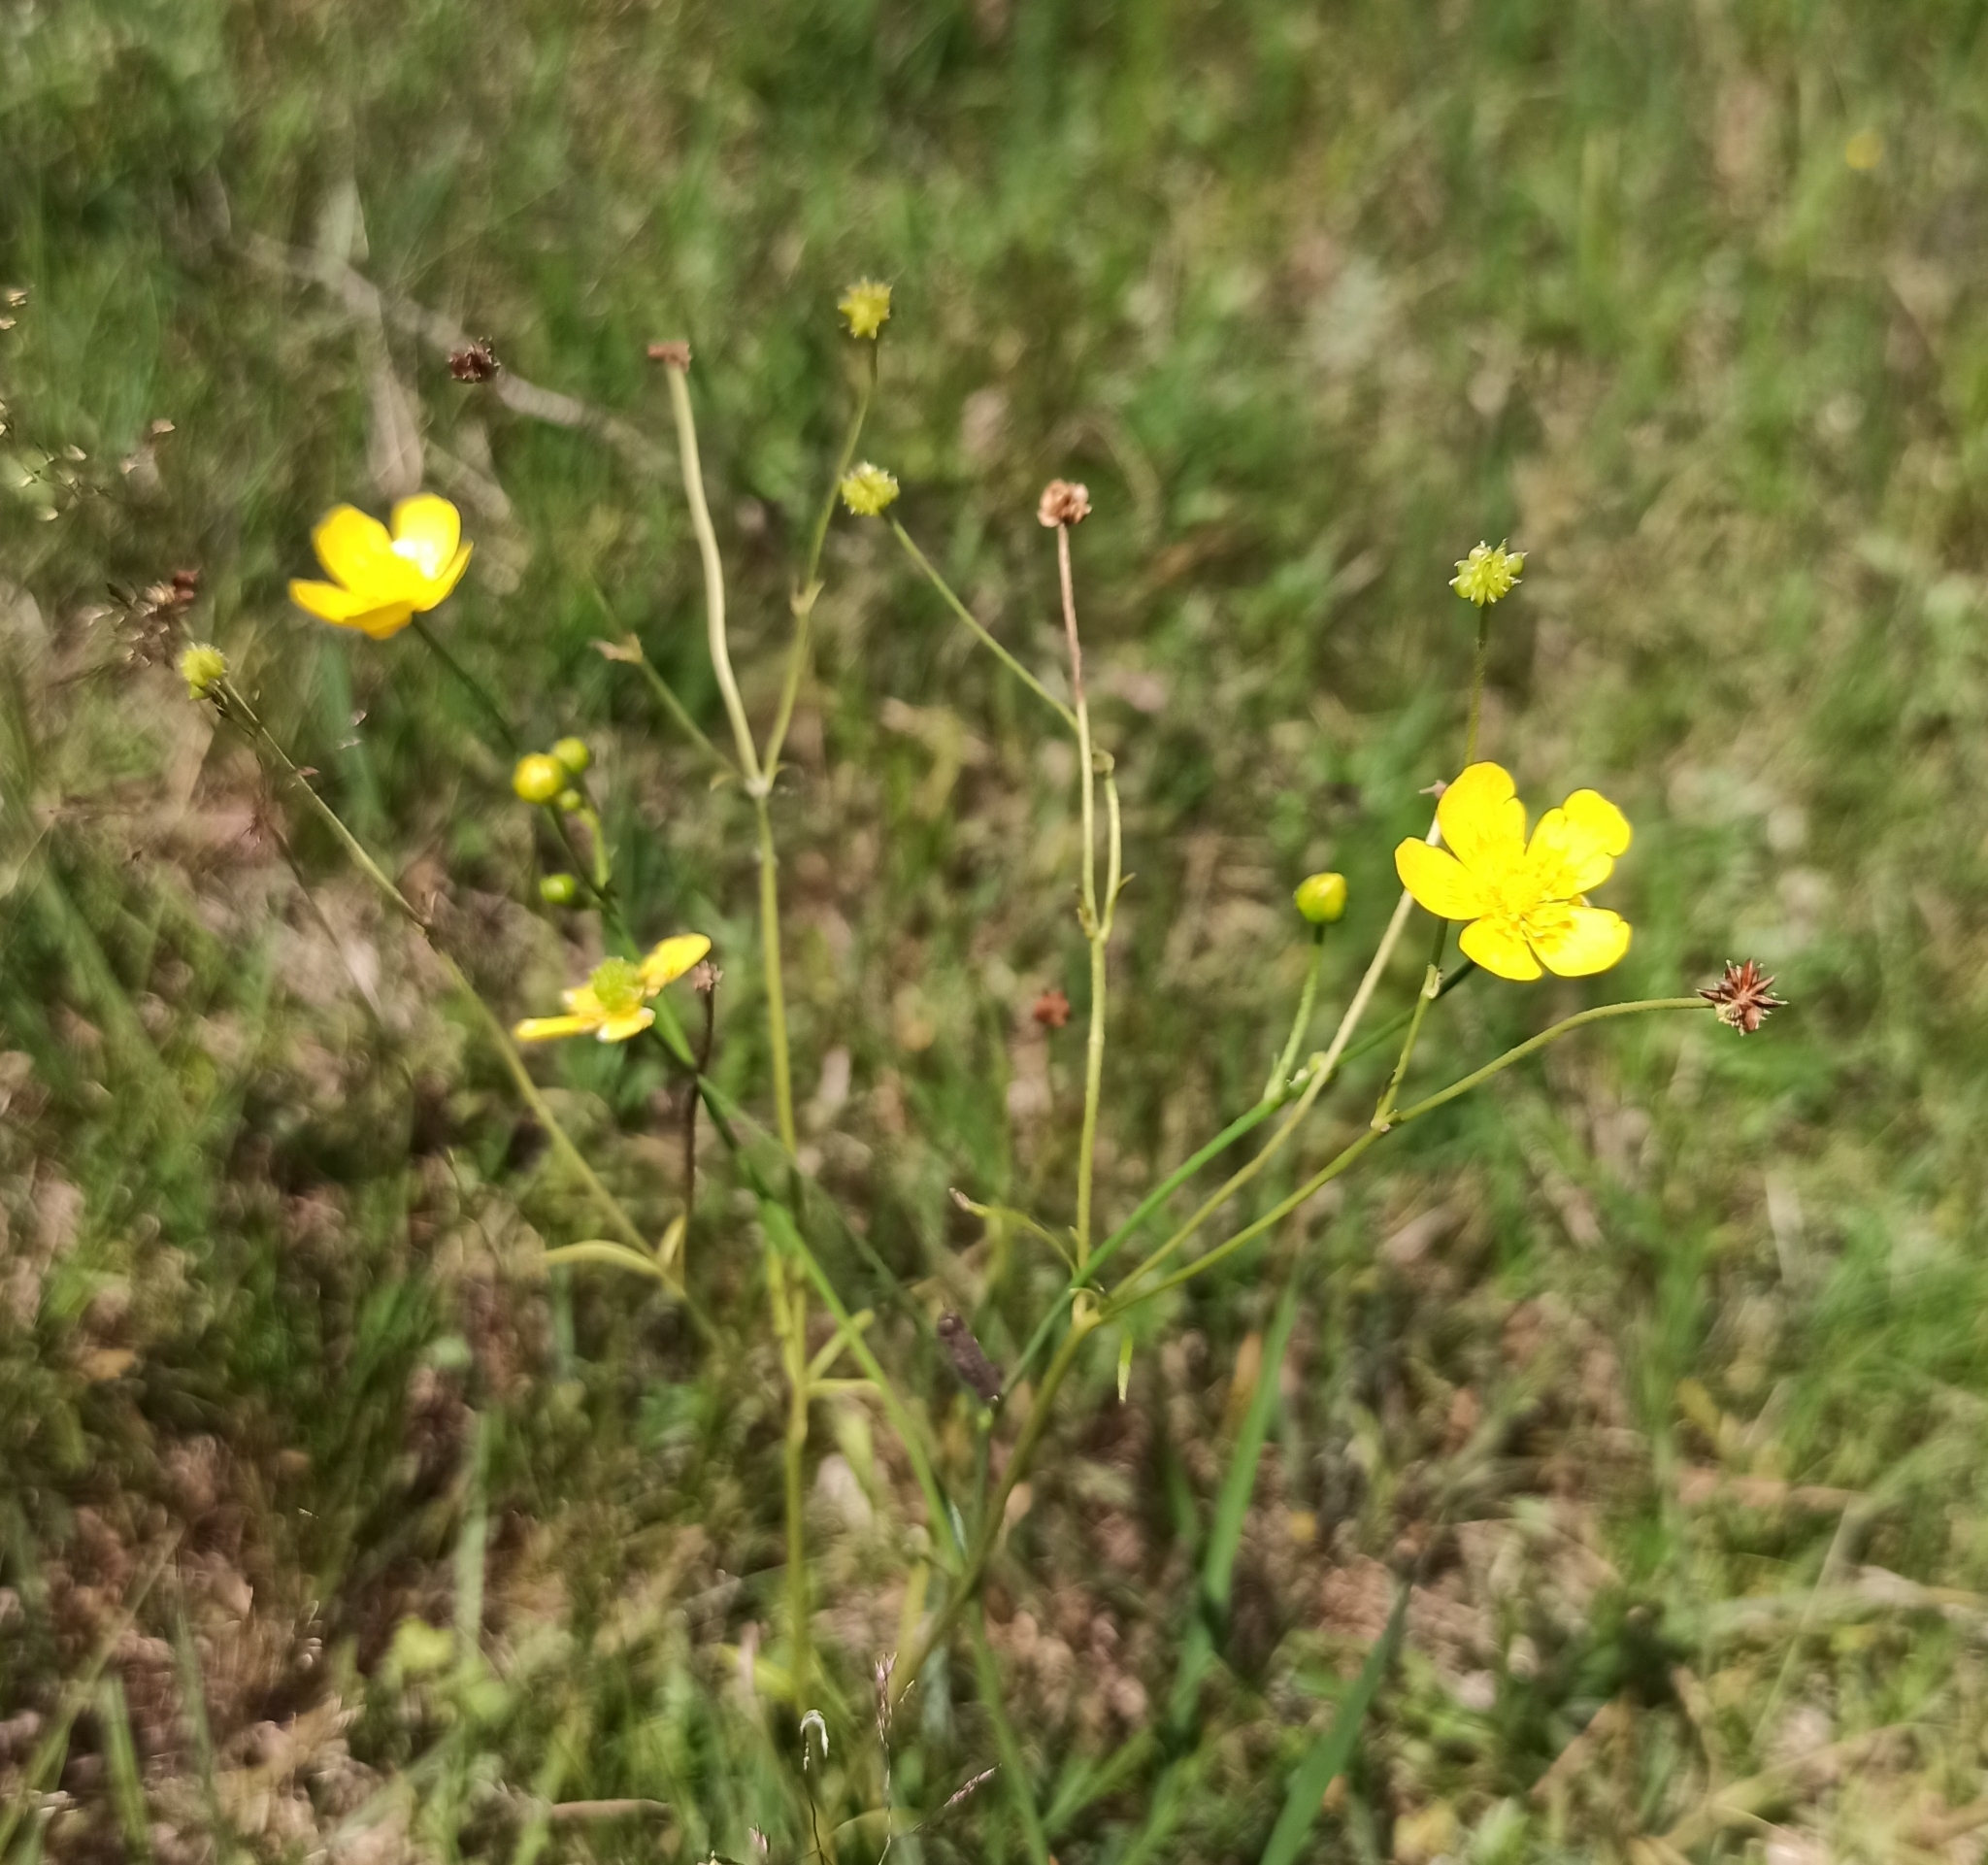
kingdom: Plantae
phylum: Tracheophyta
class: Magnoliopsida
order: Ranunculales
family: Ranunculaceae
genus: Ranunculus
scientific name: Ranunculus acris
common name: Meadow buttercup
